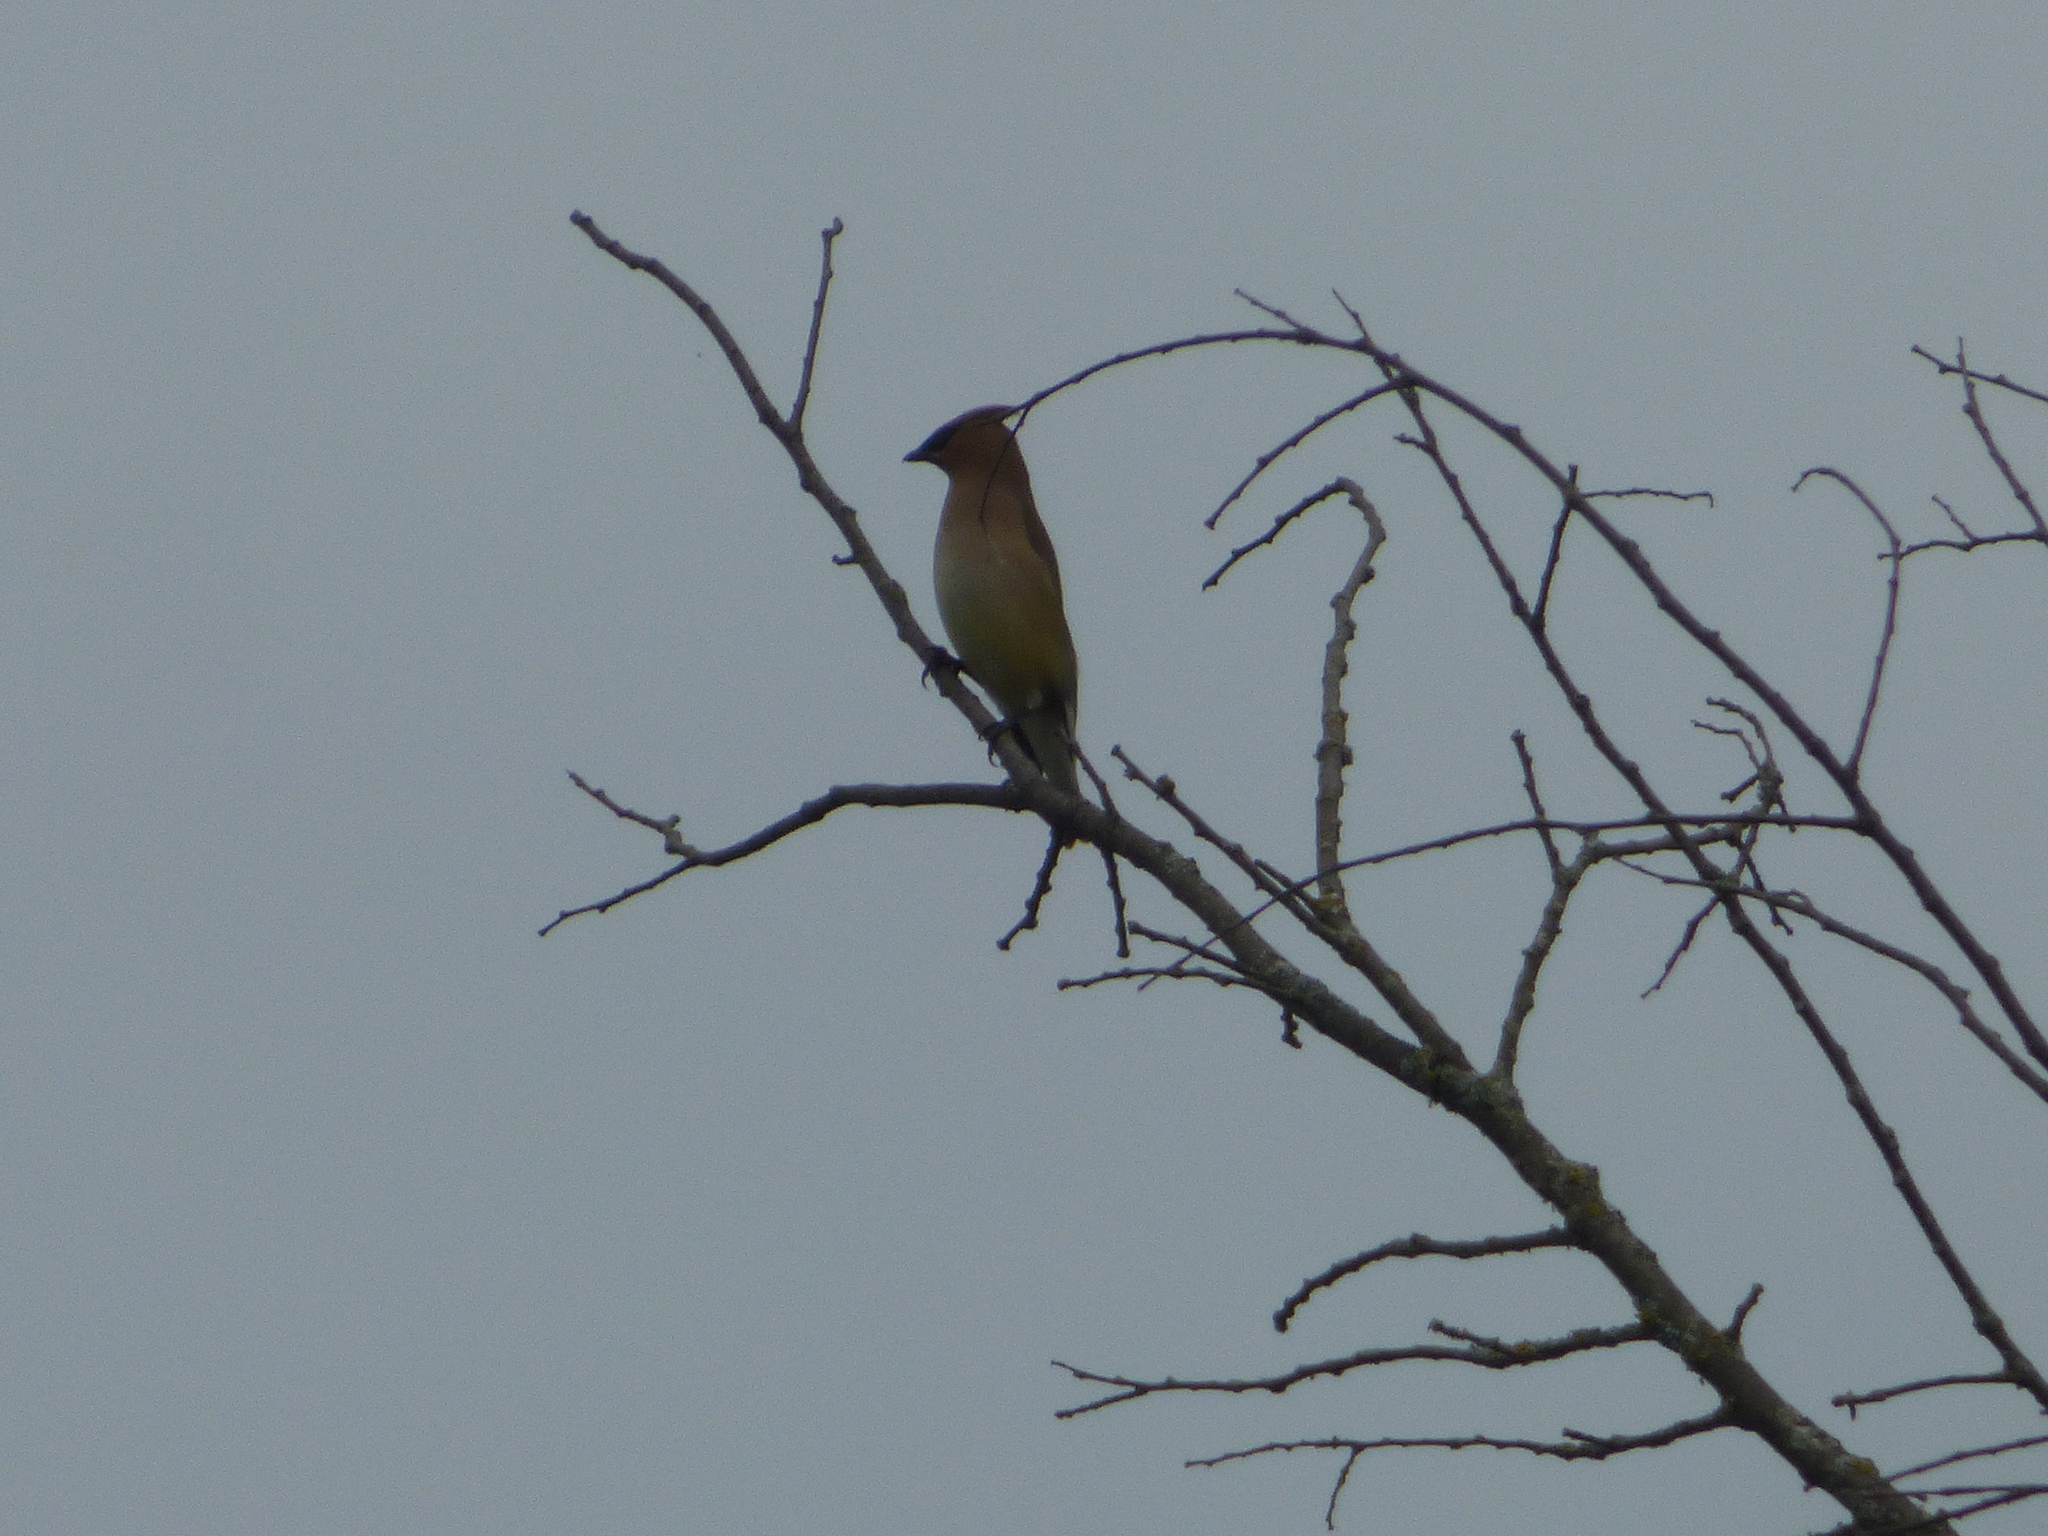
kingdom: Animalia
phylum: Chordata
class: Aves
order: Passeriformes
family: Bombycillidae
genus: Bombycilla
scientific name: Bombycilla cedrorum
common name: Cedar waxwing
